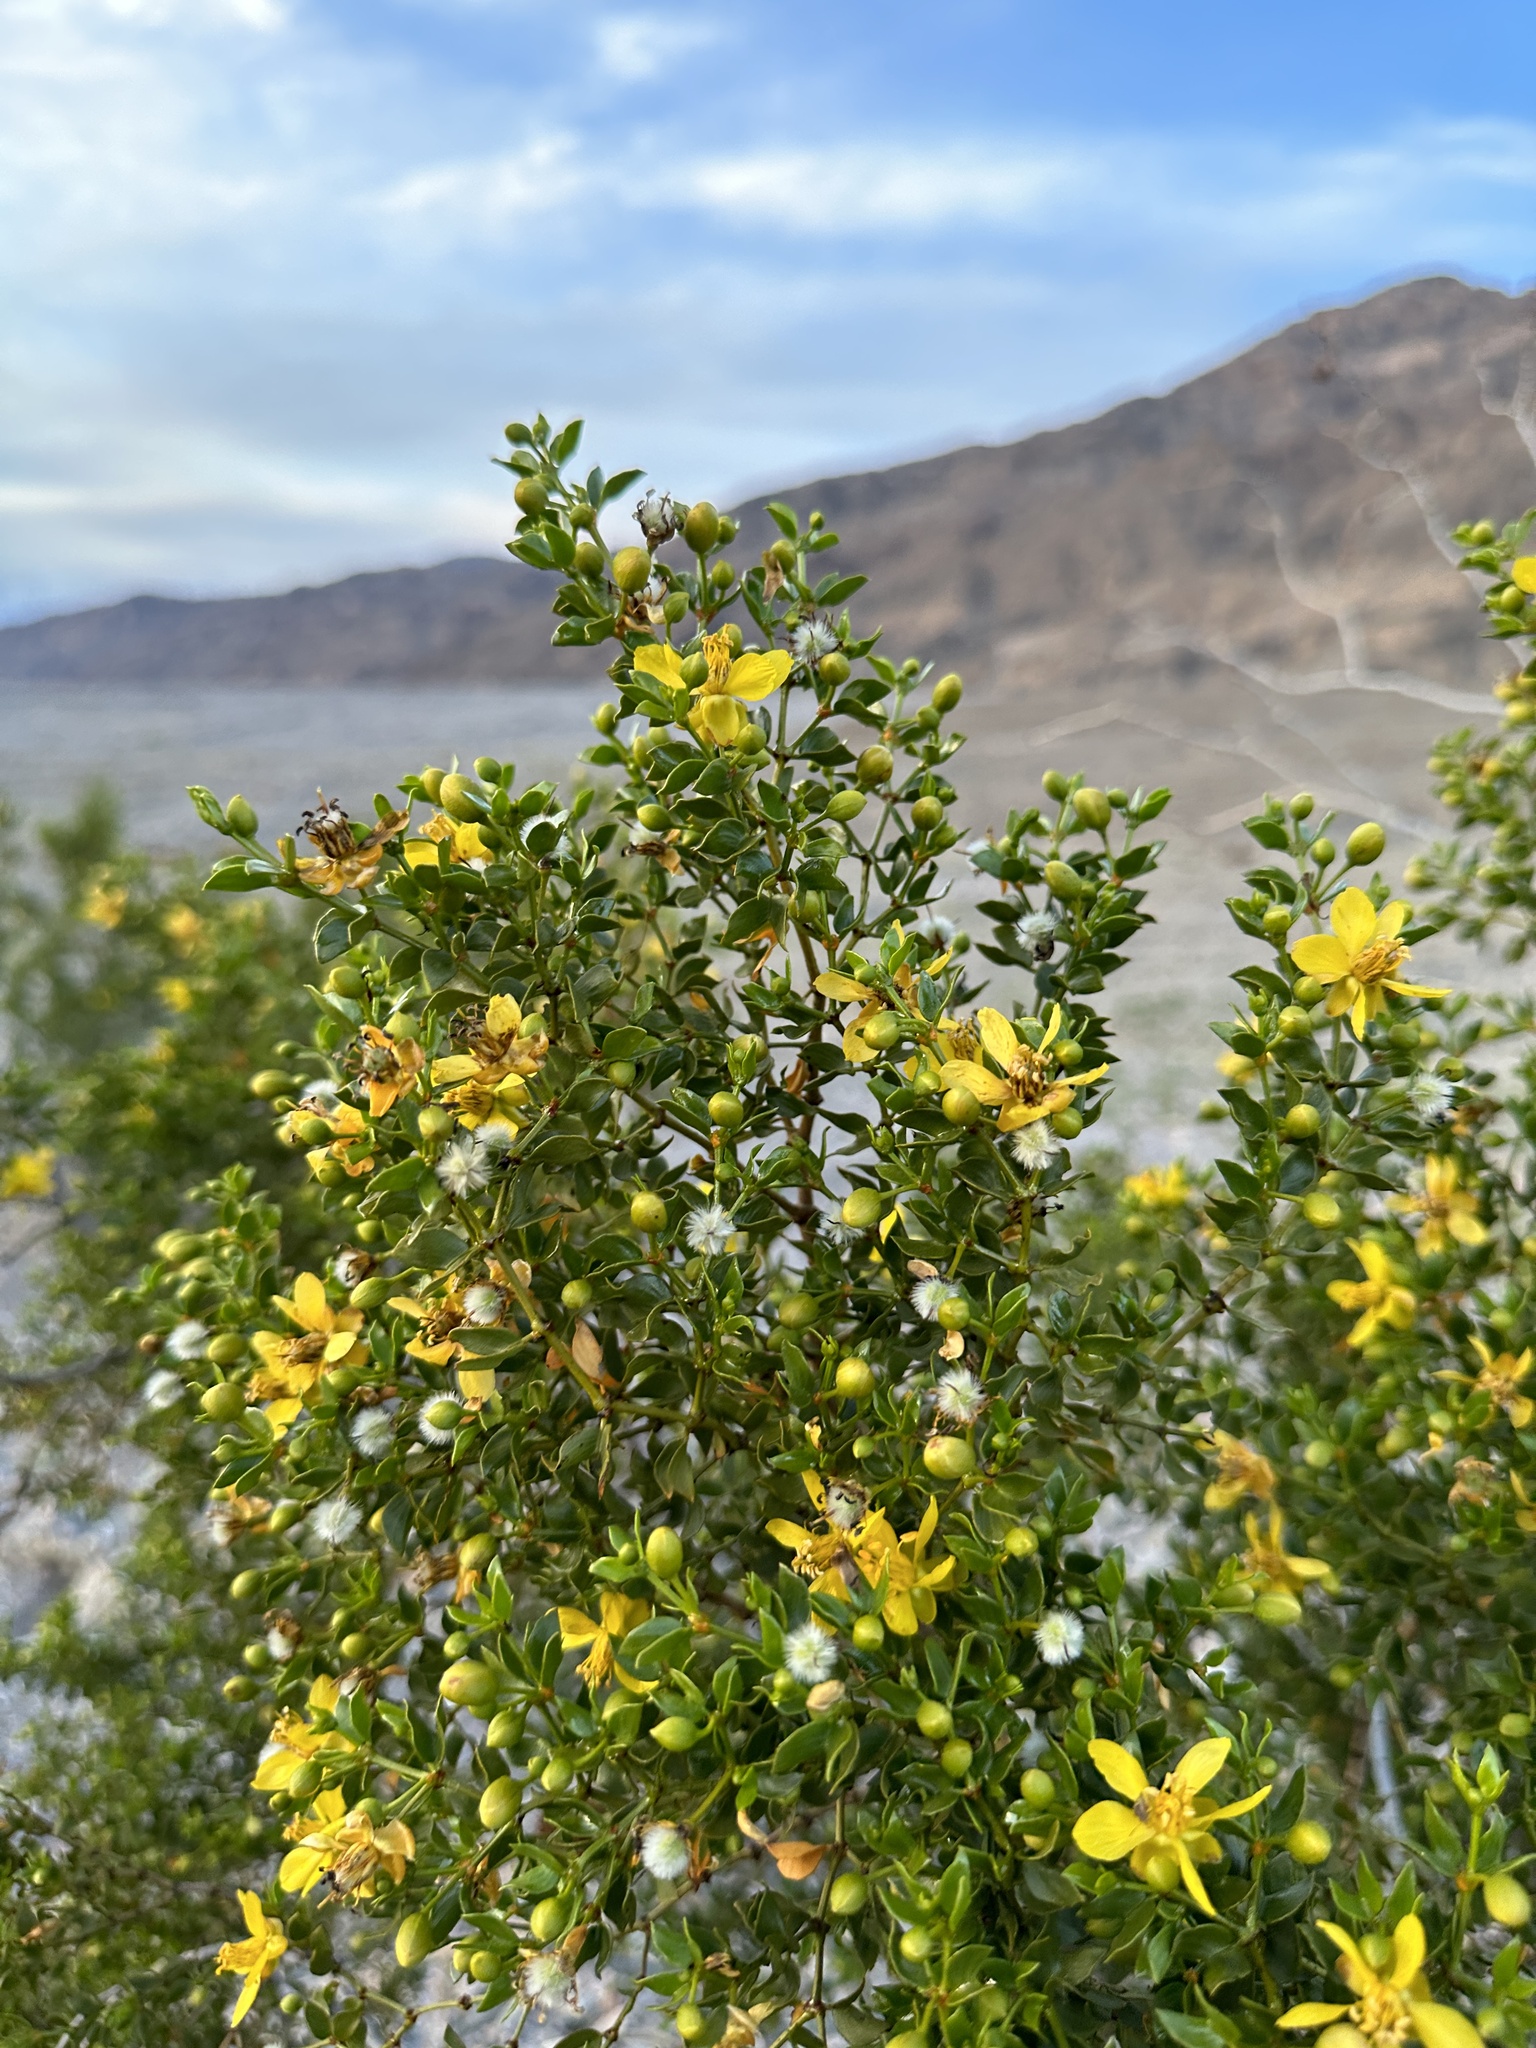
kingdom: Plantae
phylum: Tracheophyta
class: Magnoliopsida
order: Zygophyllales
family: Zygophyllaceae
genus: Larrea
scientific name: Larrea tridentata
